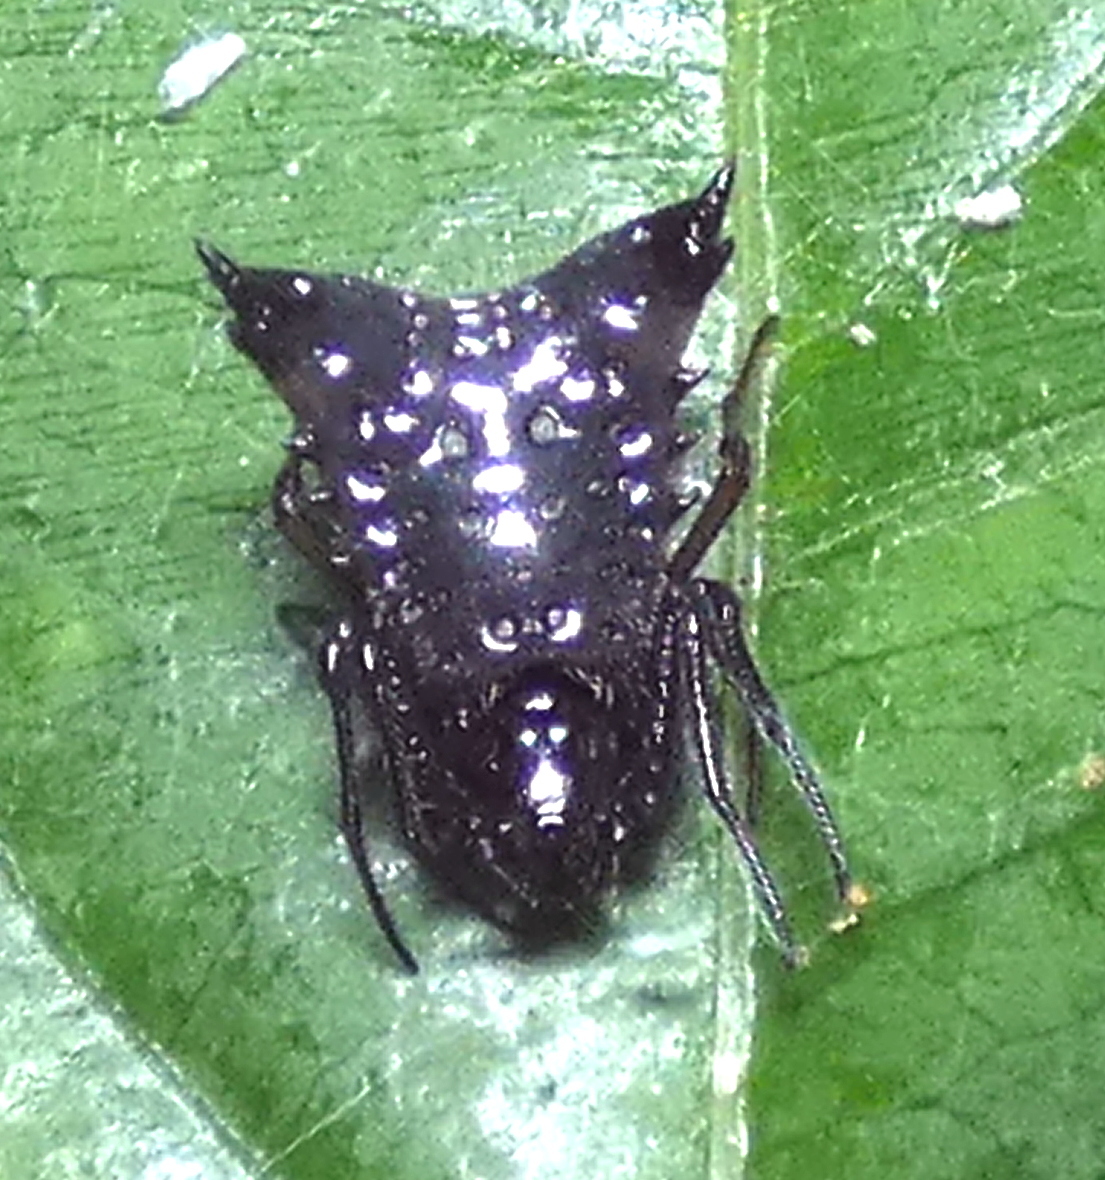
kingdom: Animalia
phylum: Arthropoda
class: Arachnida
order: Araneae
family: Araneidae
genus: Micrathena
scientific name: Micrathena triangularis
